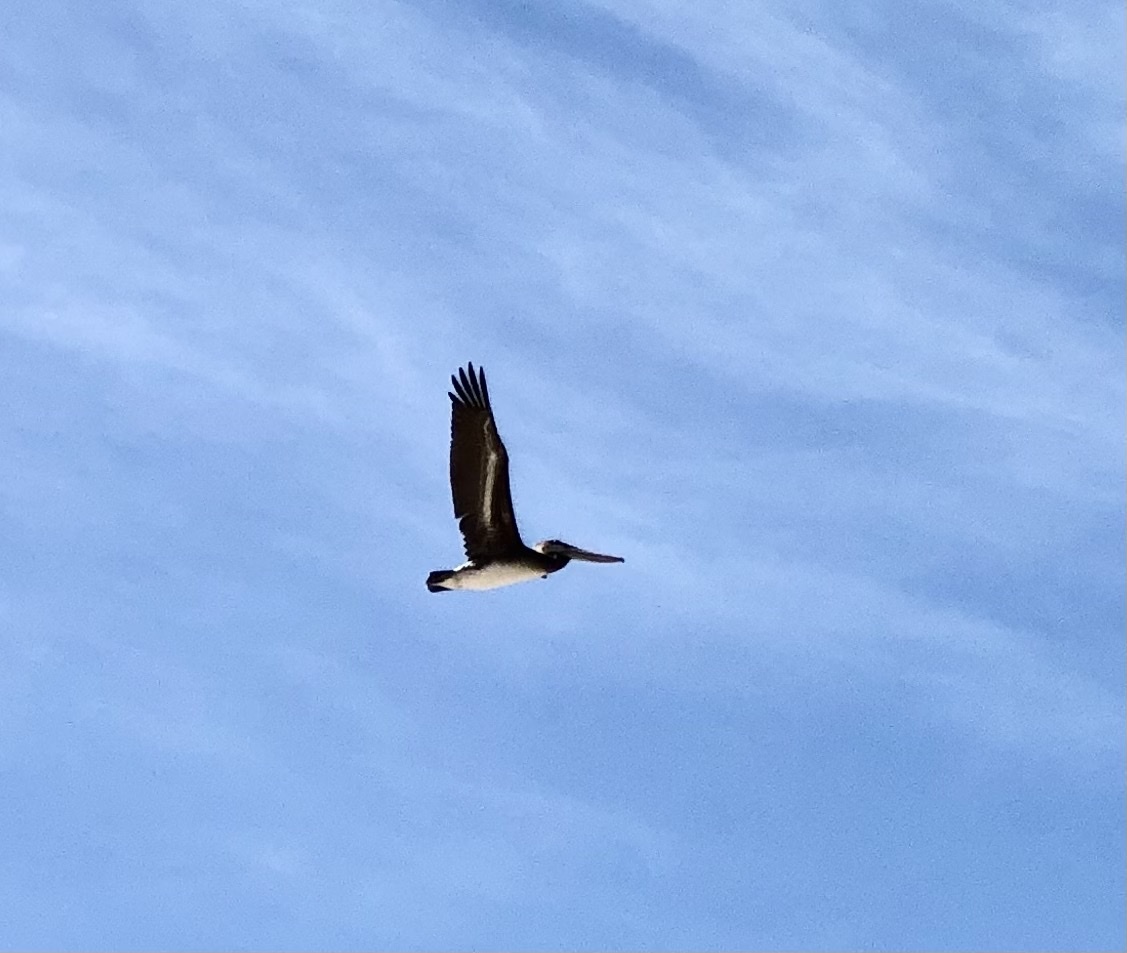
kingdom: Animalia
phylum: Chordata
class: Aves
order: Pelecaniformes
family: Pelecanidae
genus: Pelecanus
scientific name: Pelecanus occidentalis
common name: Brown pelican
